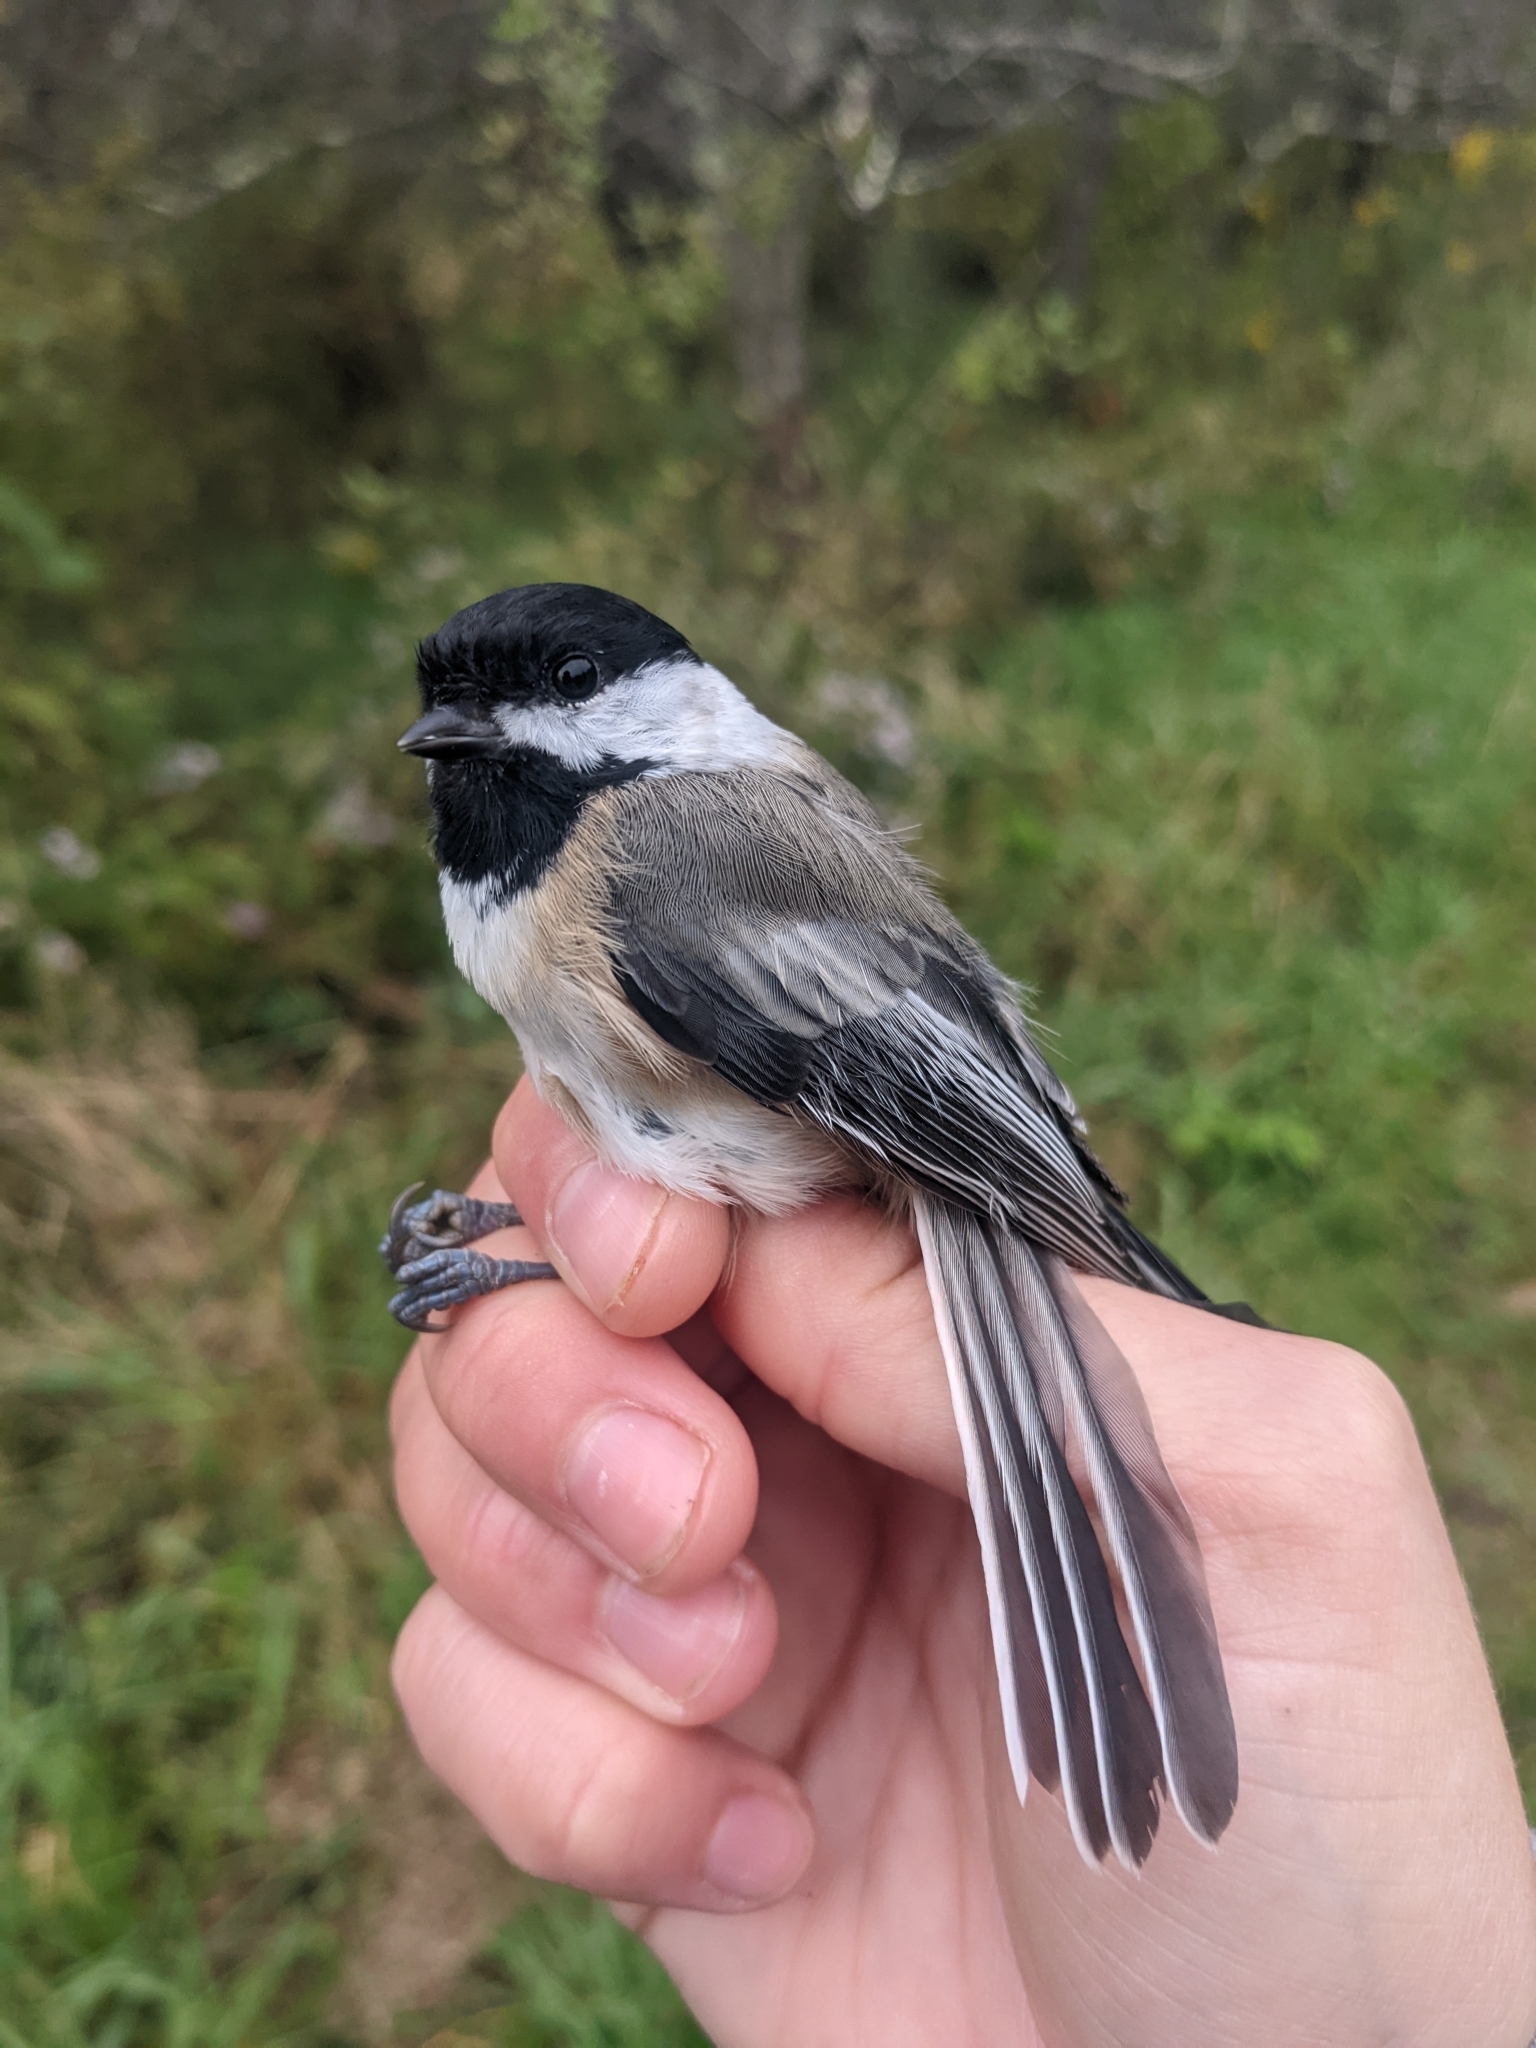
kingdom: Animalia
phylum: Chordata
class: Aves
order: Passeriformes
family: Paridae
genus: Poecile
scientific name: Poecile atricapillus
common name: Black-capped chickadee
